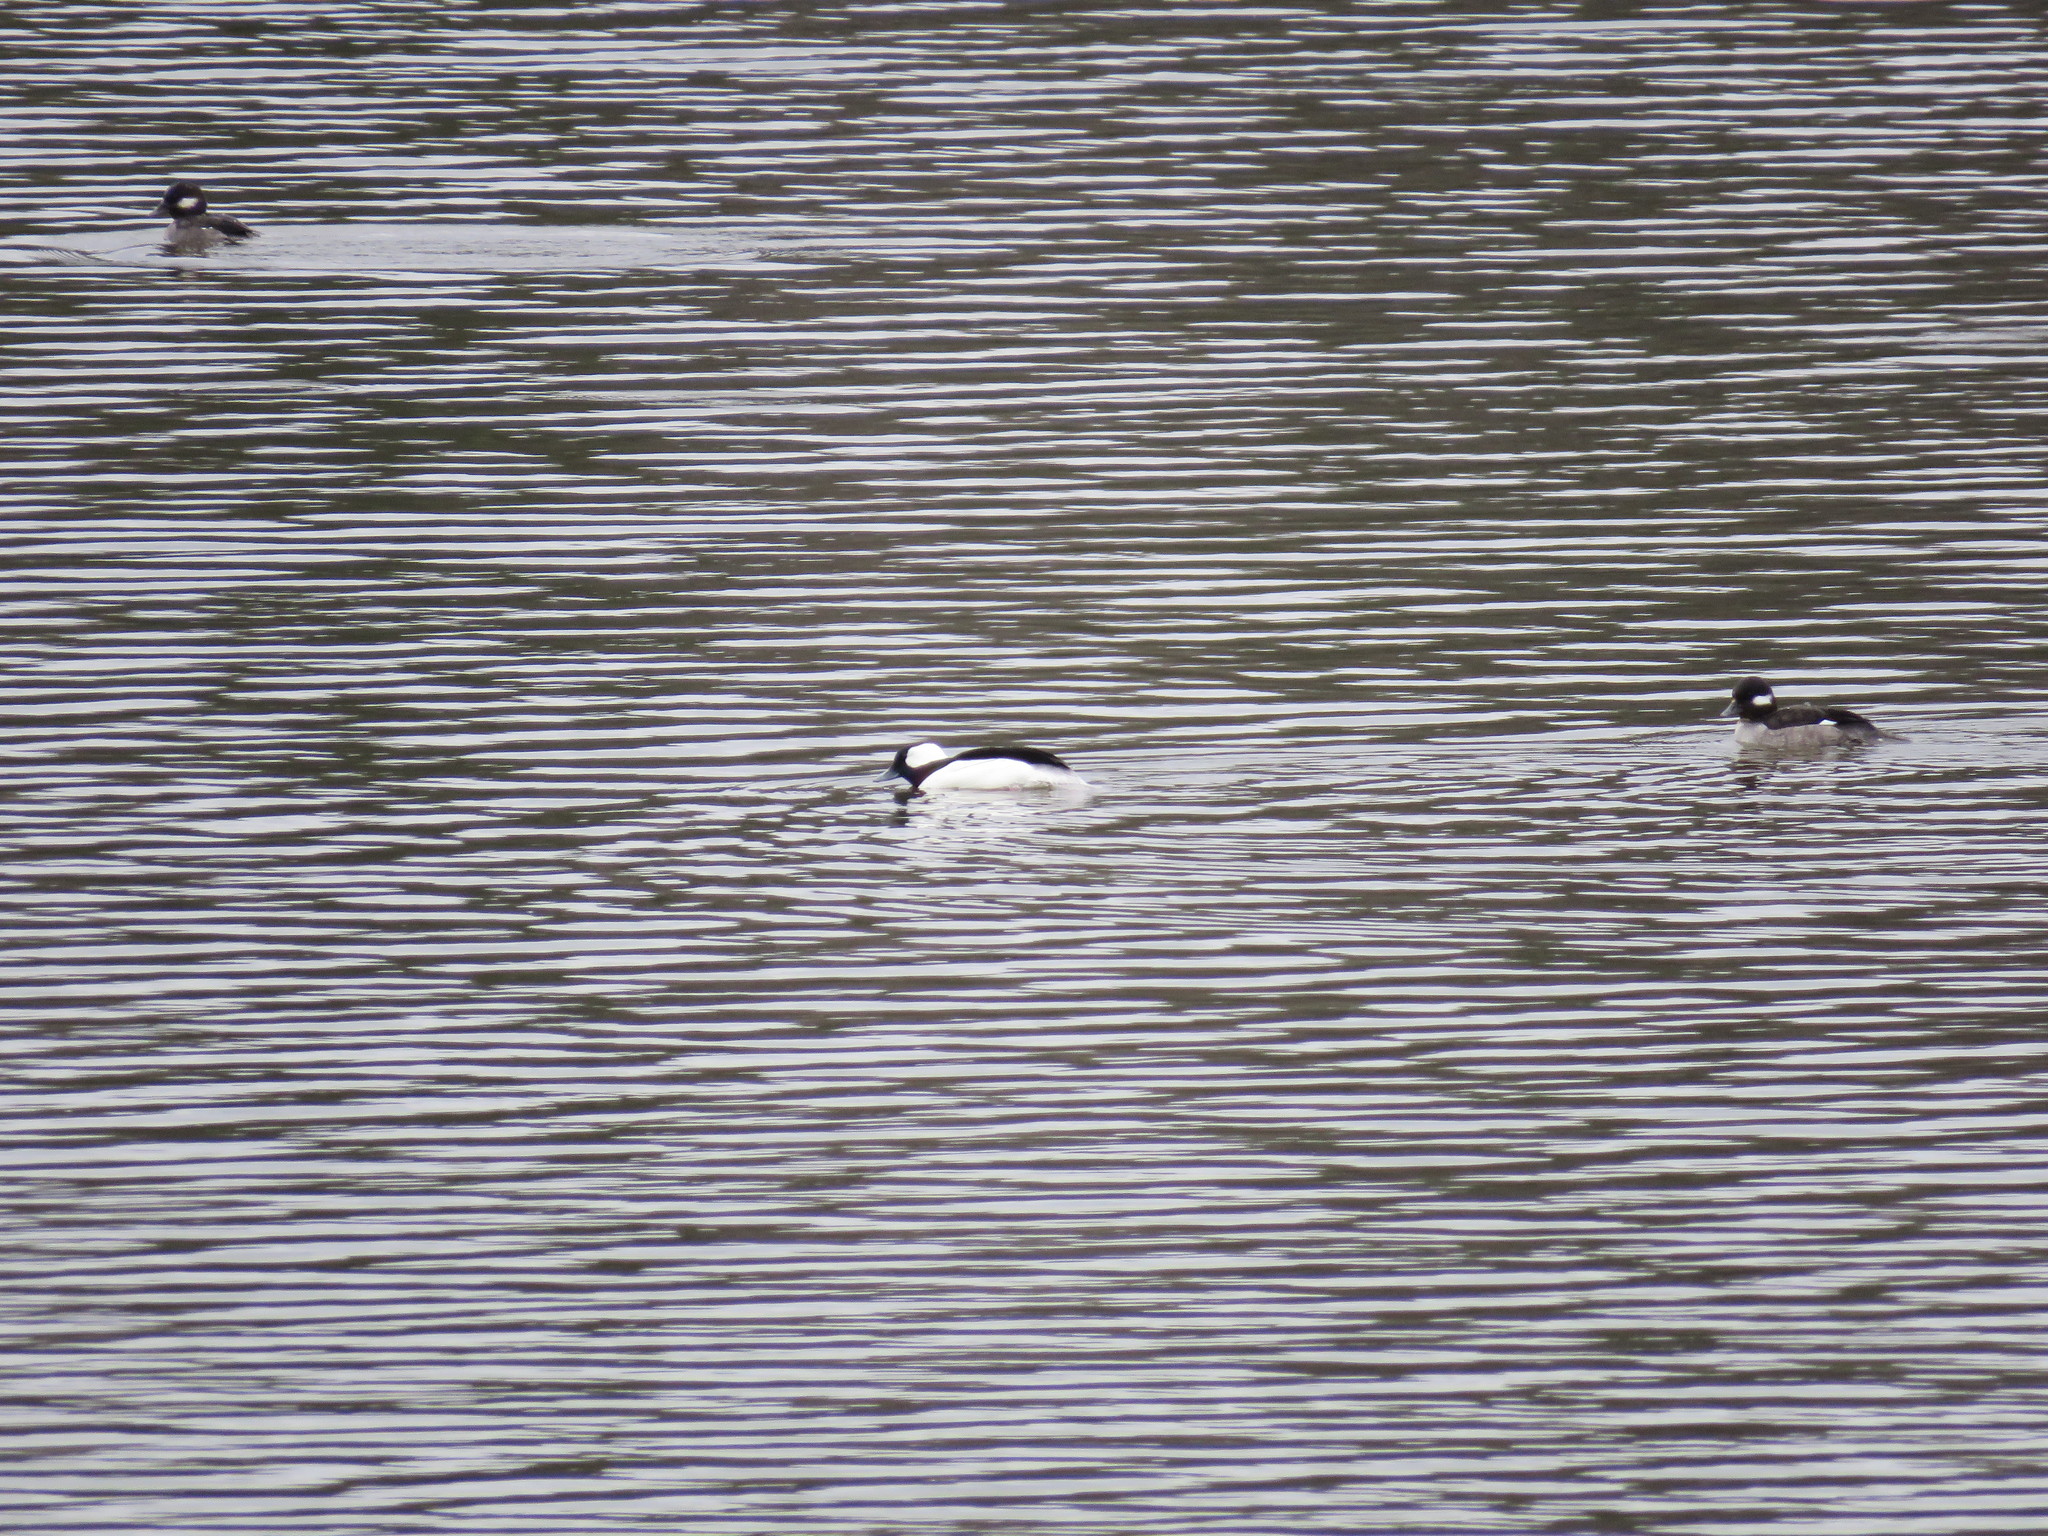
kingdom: Animalia
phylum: Chordata
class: Aves
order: Anseriformes
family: Anatidae
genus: Bucephala
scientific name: Bucephala albeola
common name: Bufflehead
